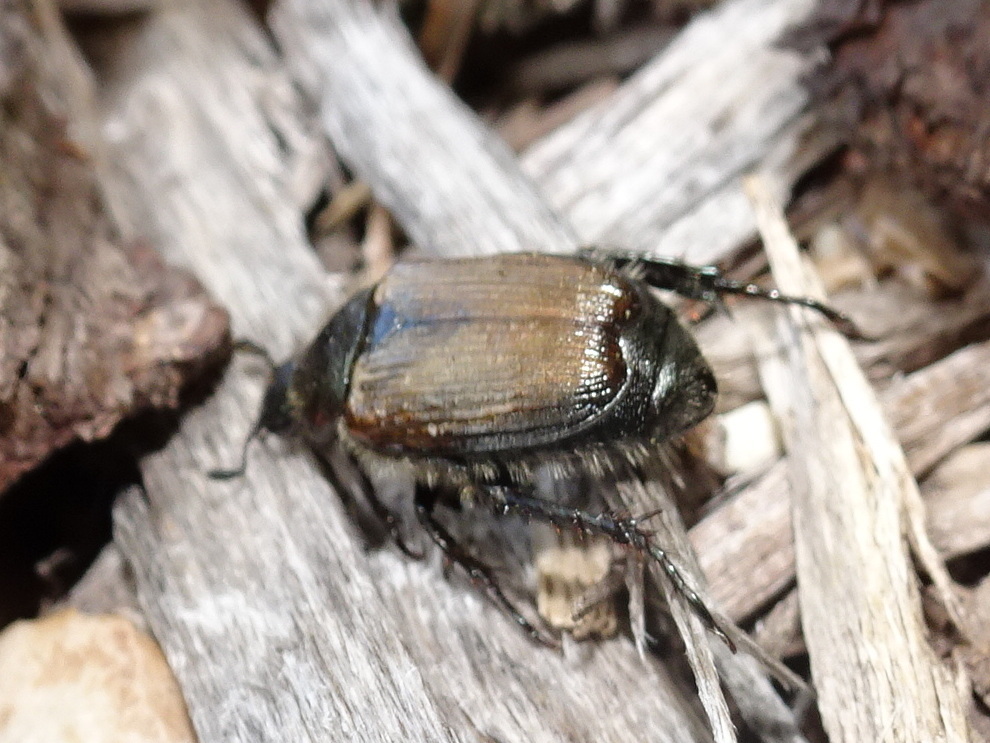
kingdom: Animalia
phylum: Arthropoda
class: Insecta
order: Coleoptera
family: Scarabaeidae
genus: Popillia
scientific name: Popillia japonica
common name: Japanese beetle
